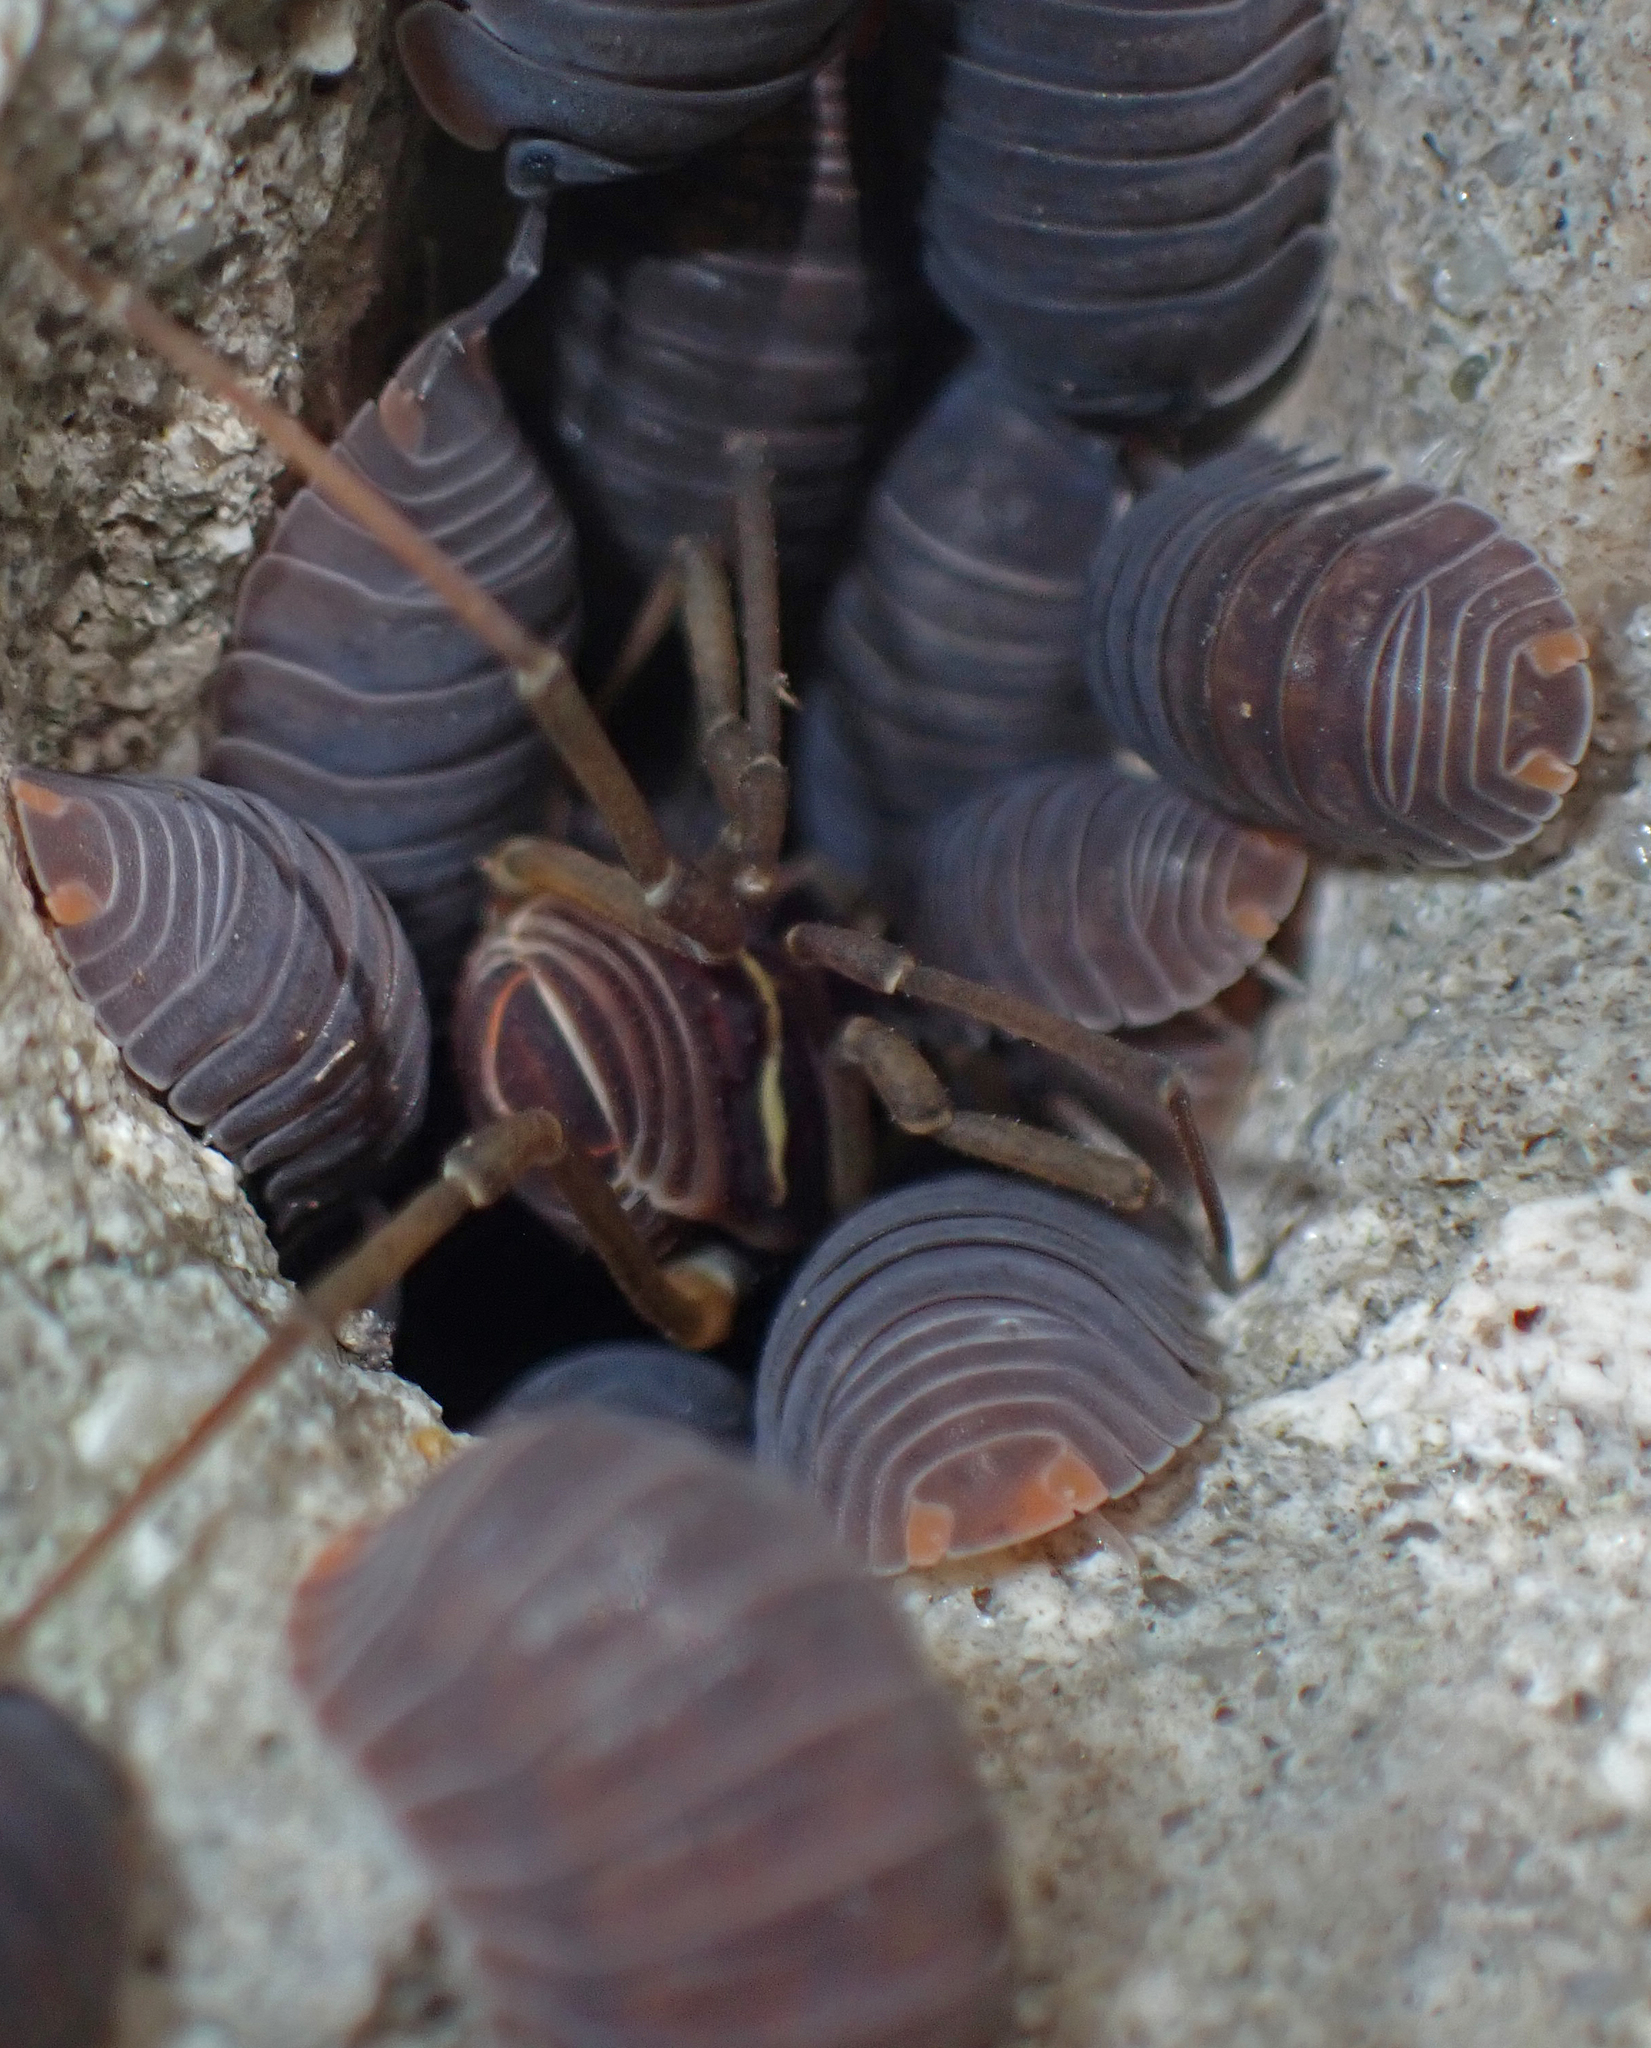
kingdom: Animalia
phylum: Arthropoda
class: Malacostraca
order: Isopoda
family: Armadillidae
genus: Cubaris
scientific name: Cubaris murina
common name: Pillbug
